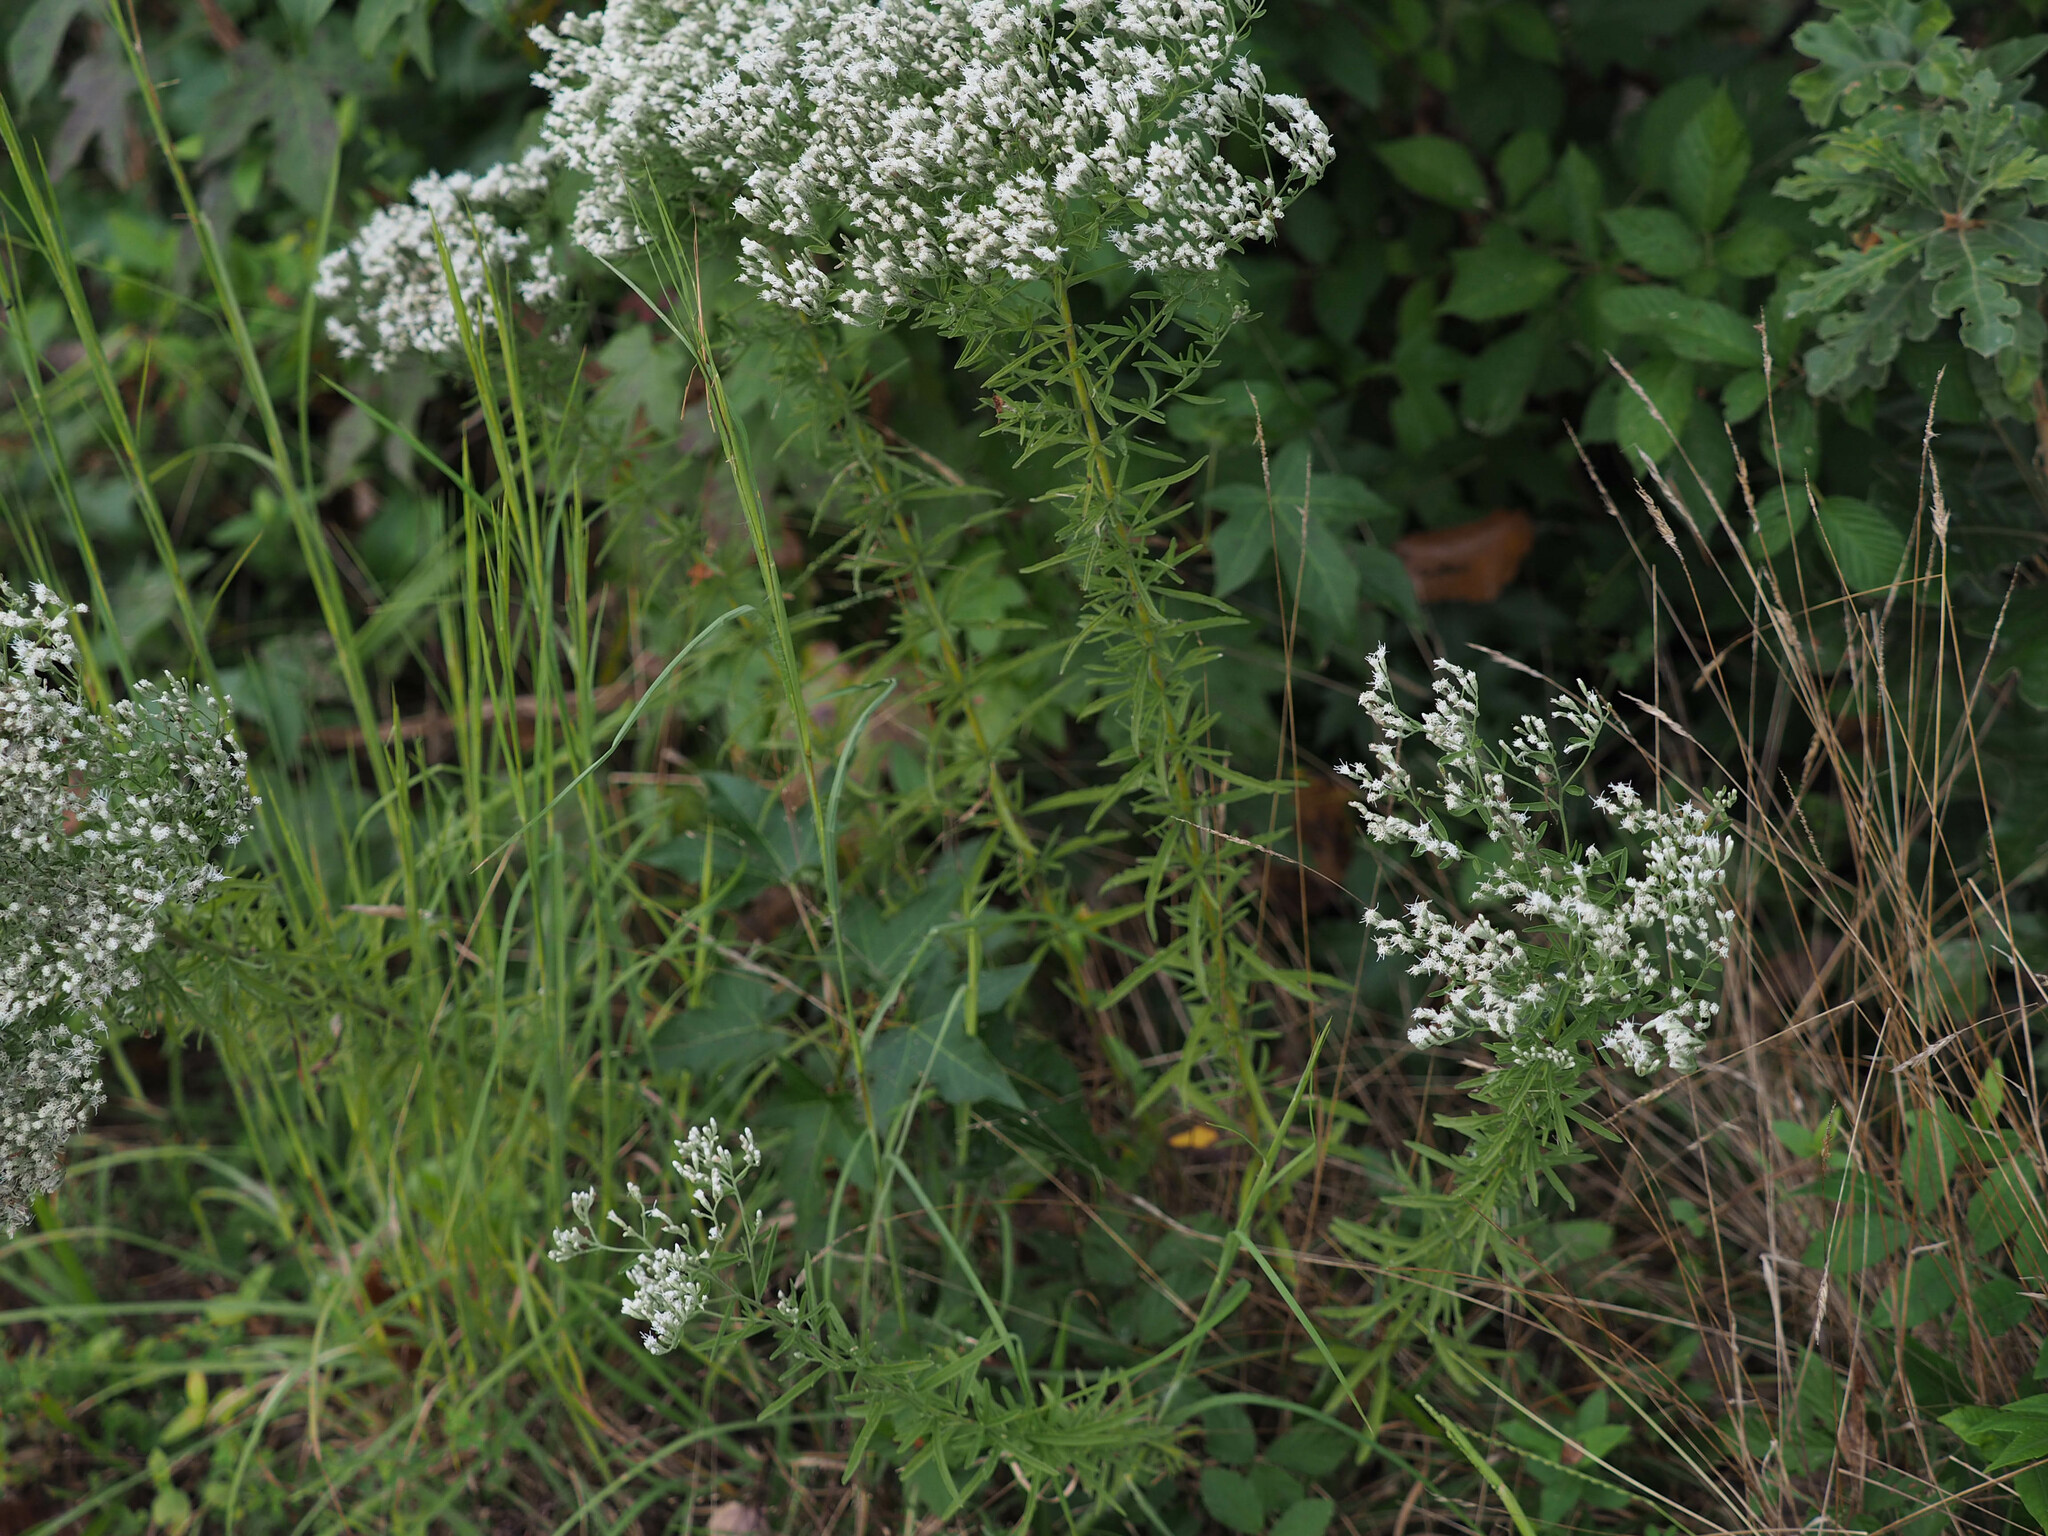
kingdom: Plantae
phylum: Tracheophyta
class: Magnoliopsida
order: Asterales
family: Asteraceae
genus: Eupatorium
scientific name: Eupatorium hyssopifolium
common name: Hyssop-leaf thoroughwort
